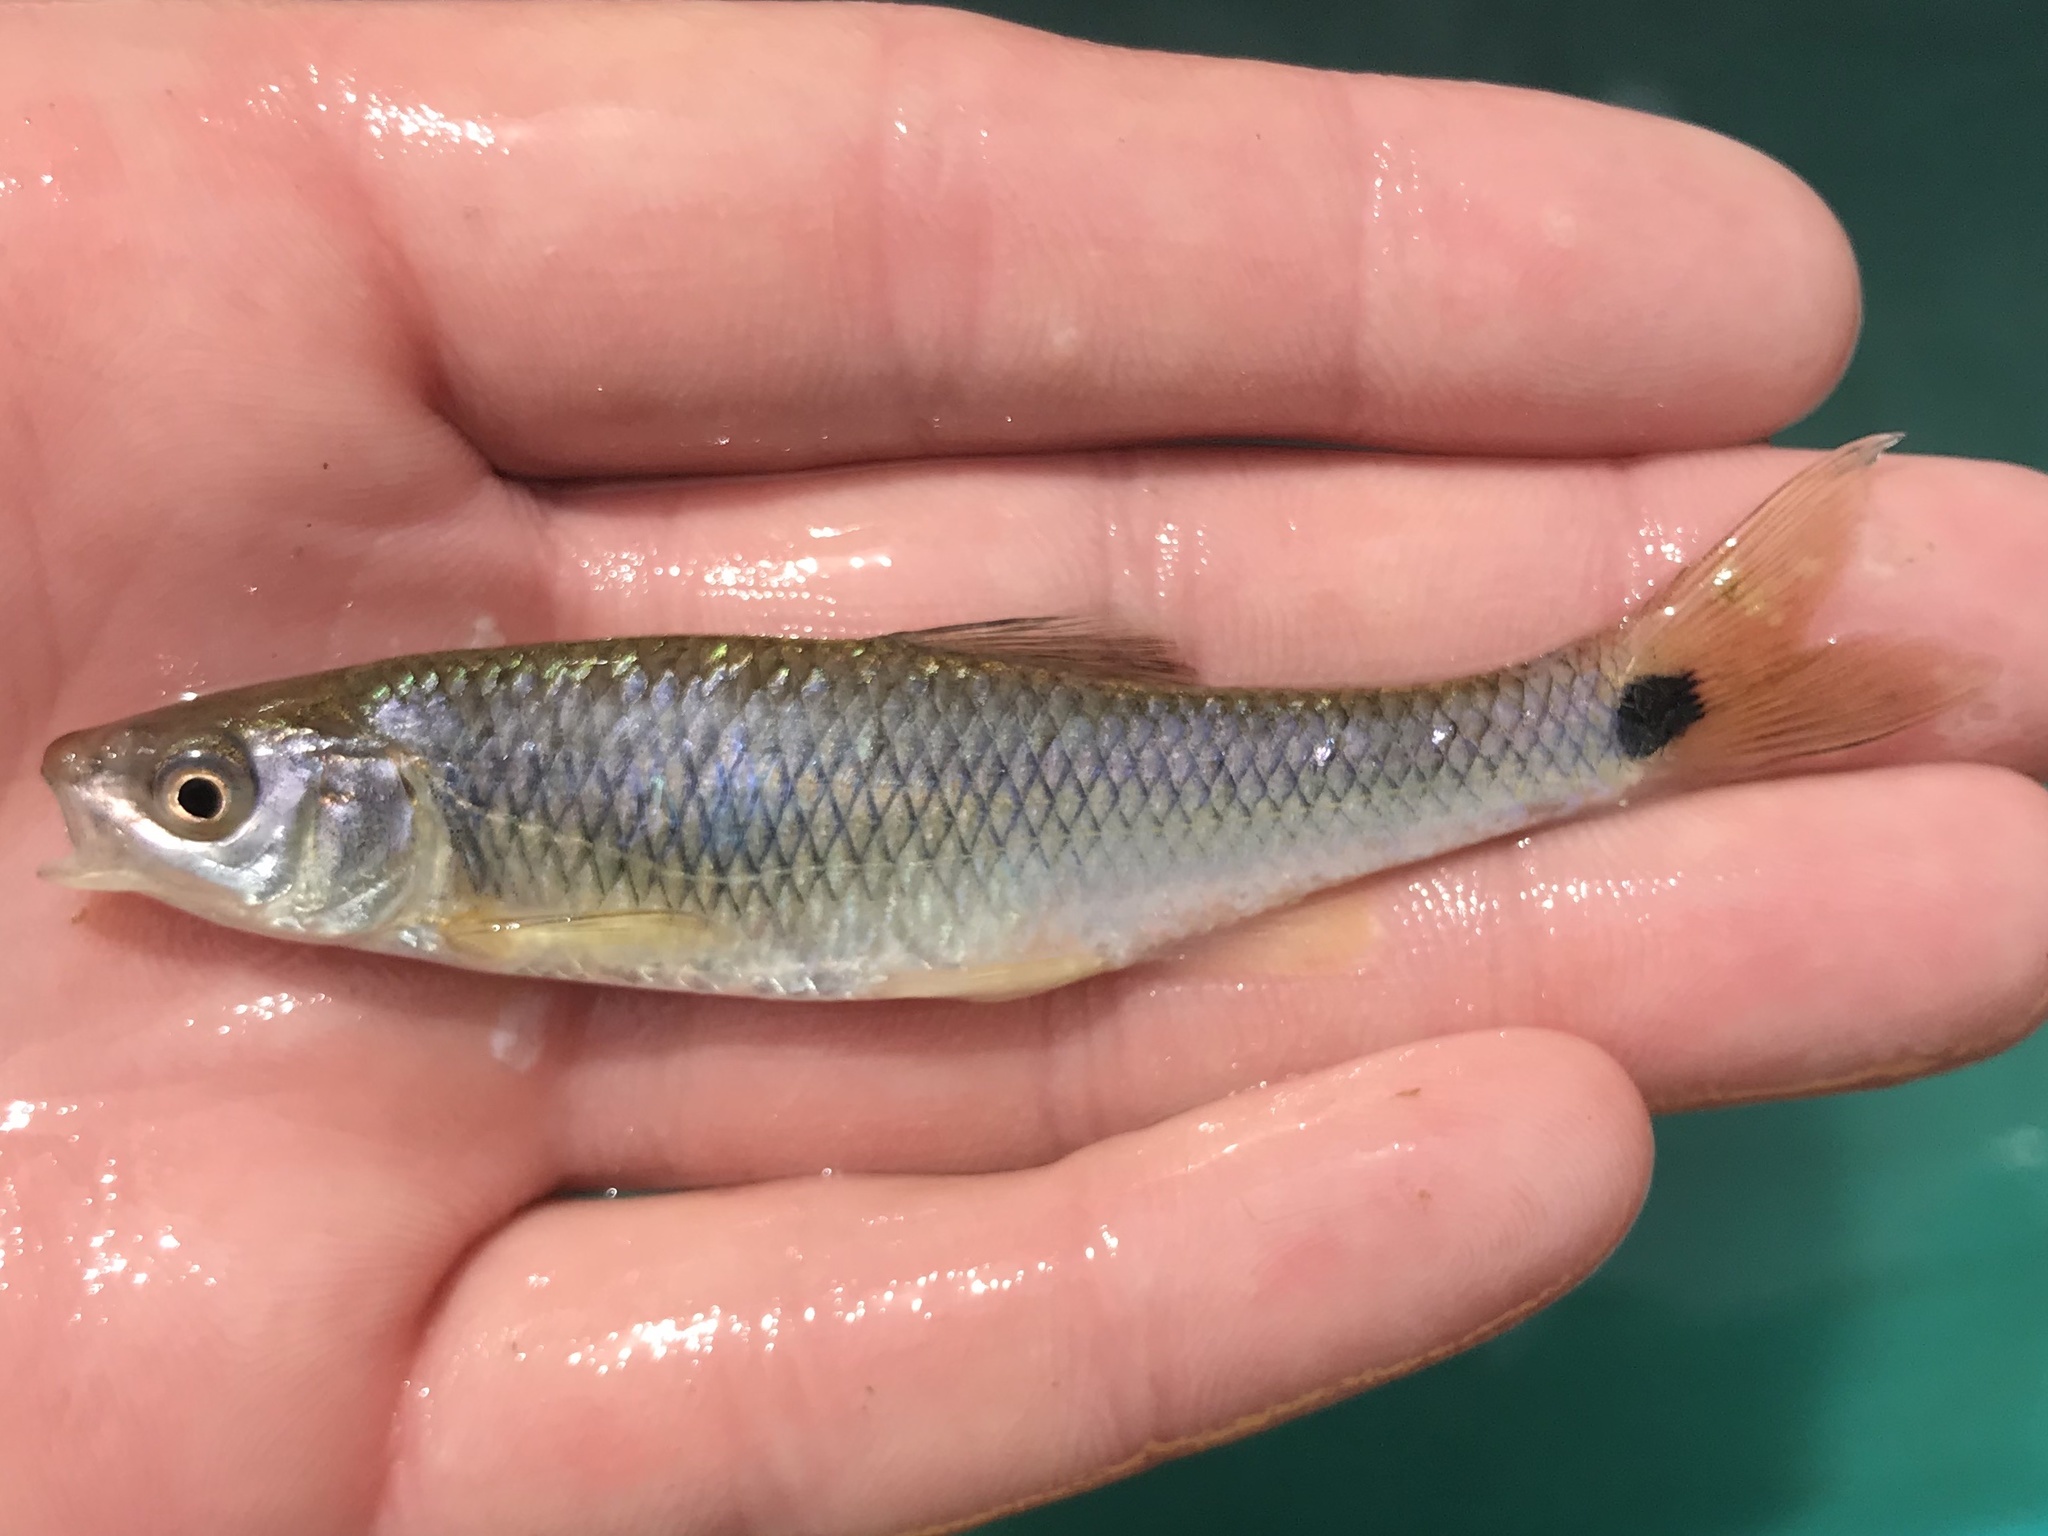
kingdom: Animalia
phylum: Chordata
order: Cypriniformes
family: Cyprinidae
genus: Cyprinella
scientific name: Cyprinella venusta
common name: Blacktail shiner
